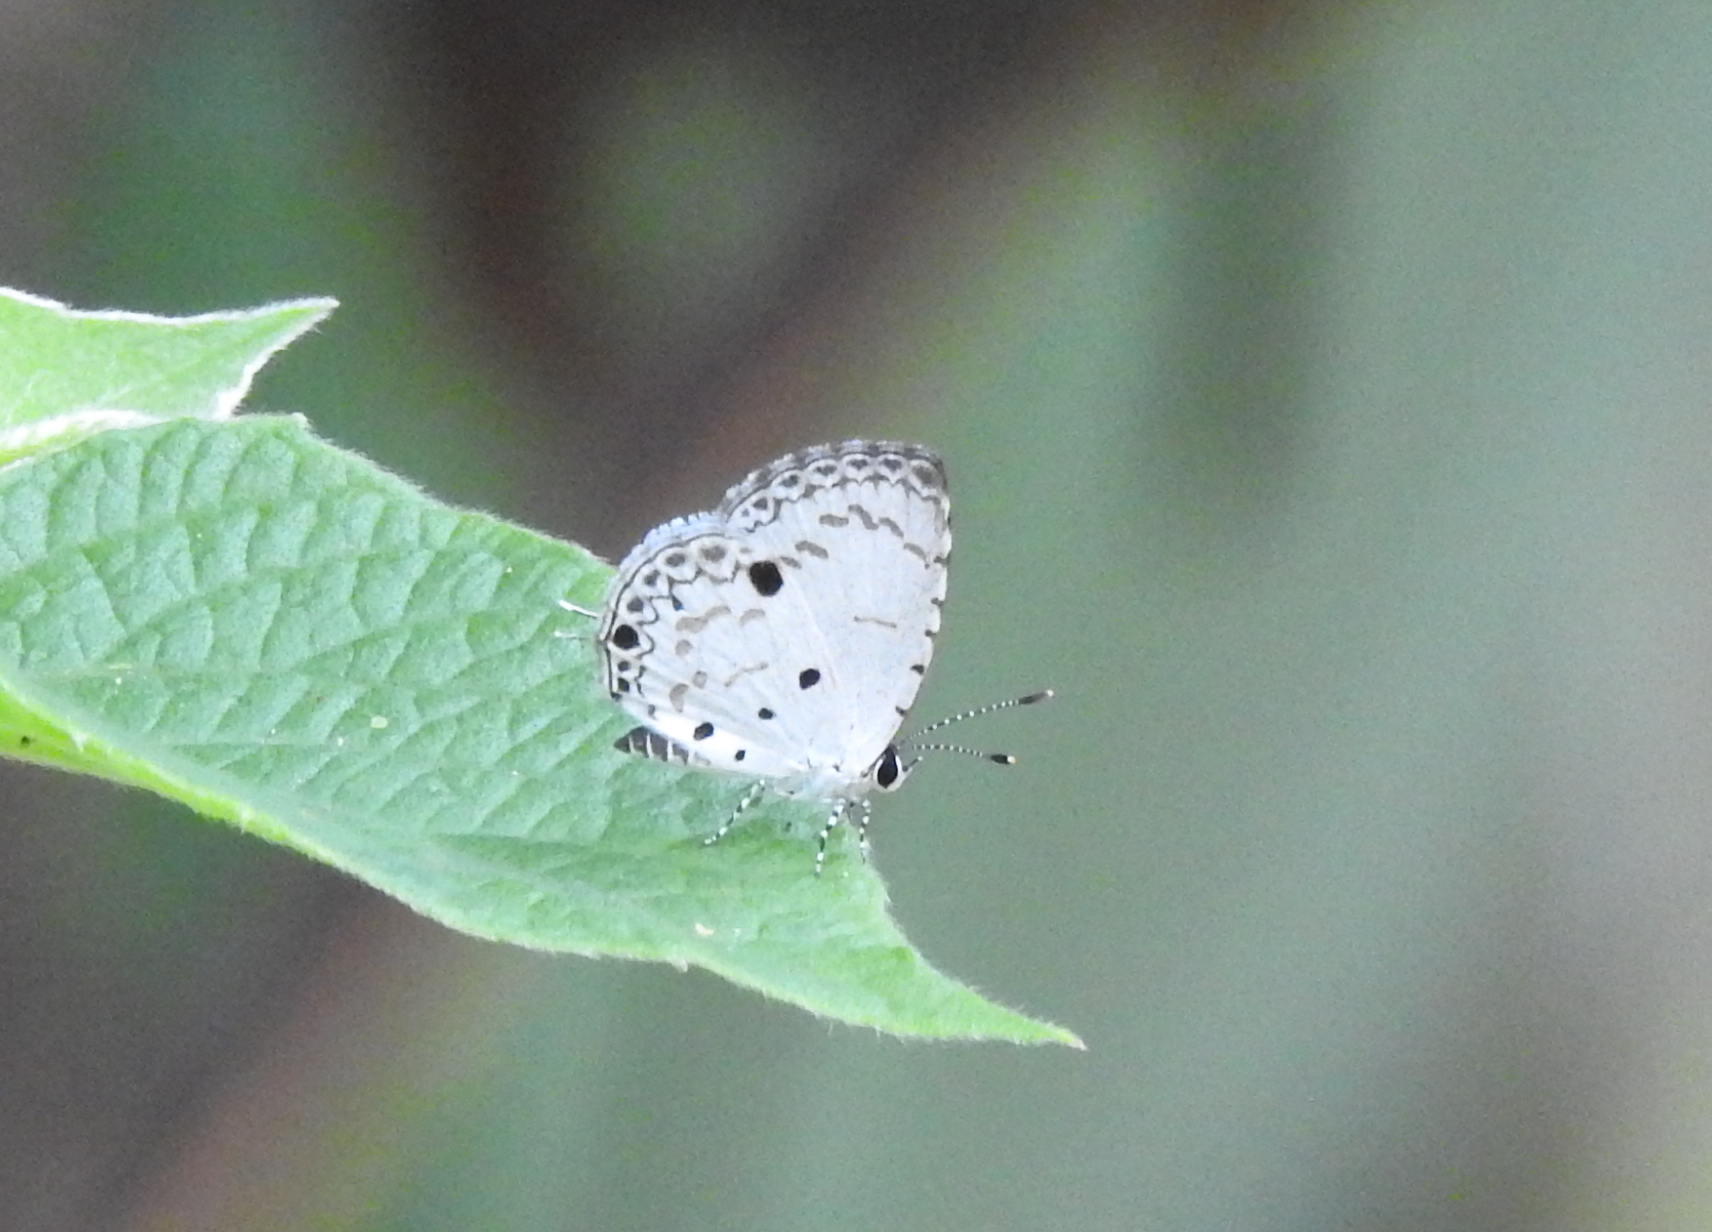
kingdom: Animalia
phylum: Arthropoda
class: Insecta
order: Lepidoptera
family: Lycaenidae
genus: Megisba
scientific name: Megisba malaya
